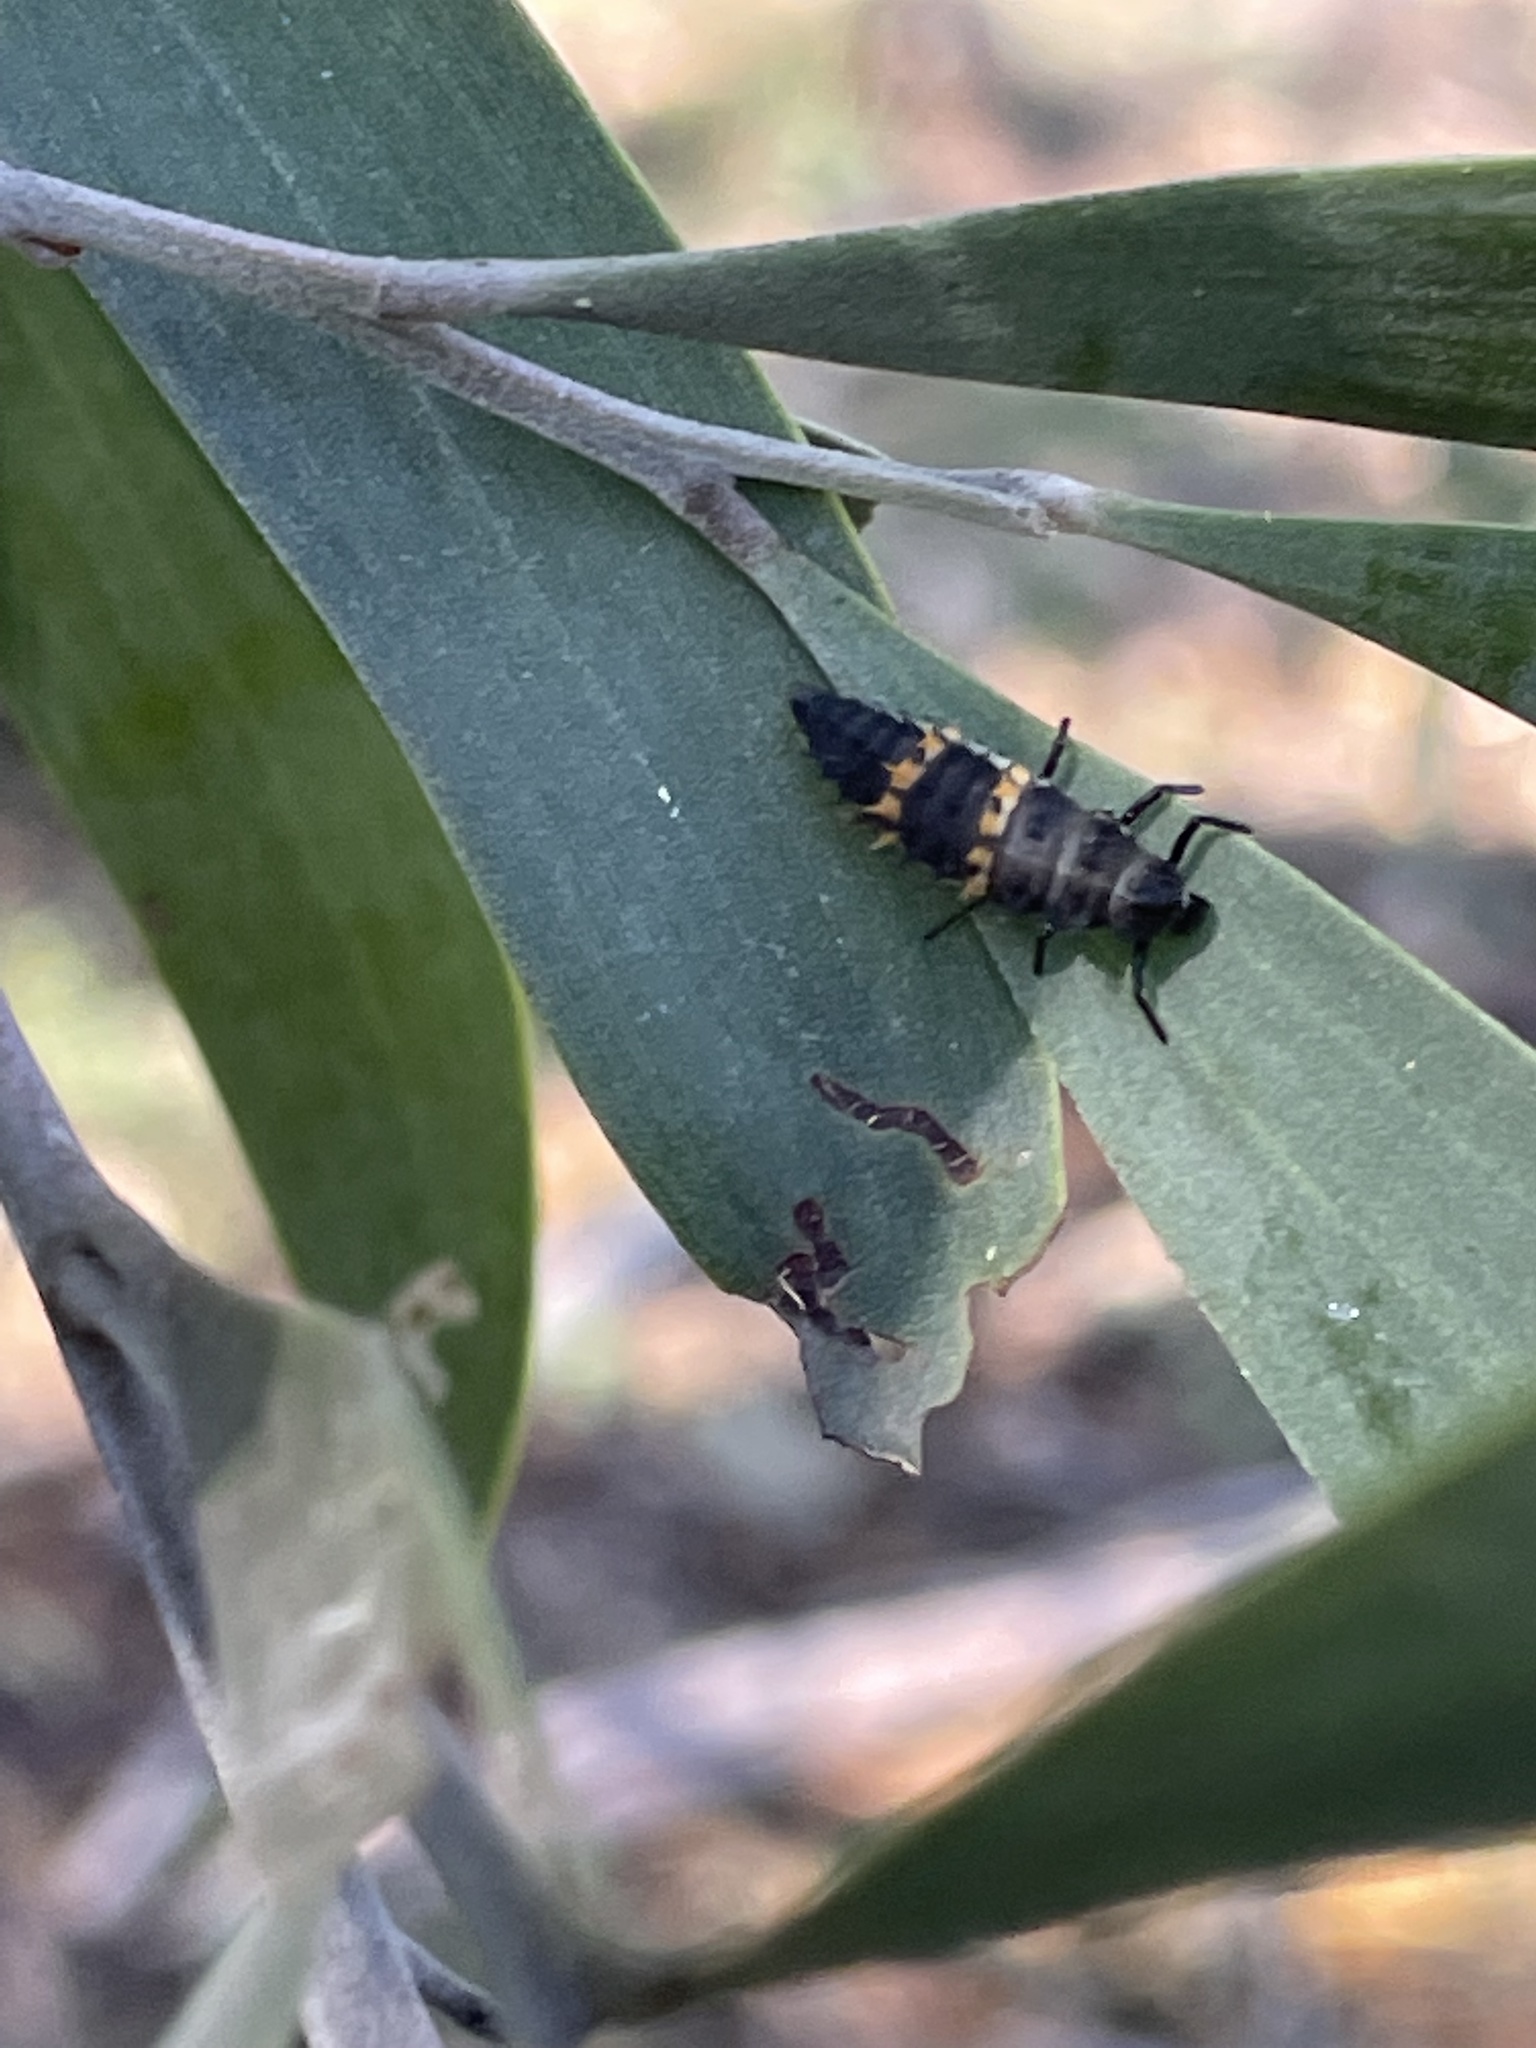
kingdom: Animalia
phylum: Arthropoda
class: Insecta
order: Coleoptera
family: Coccinellidae
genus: Harmonia
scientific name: Harmonia conformis
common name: Common spotted ladybird beetle
